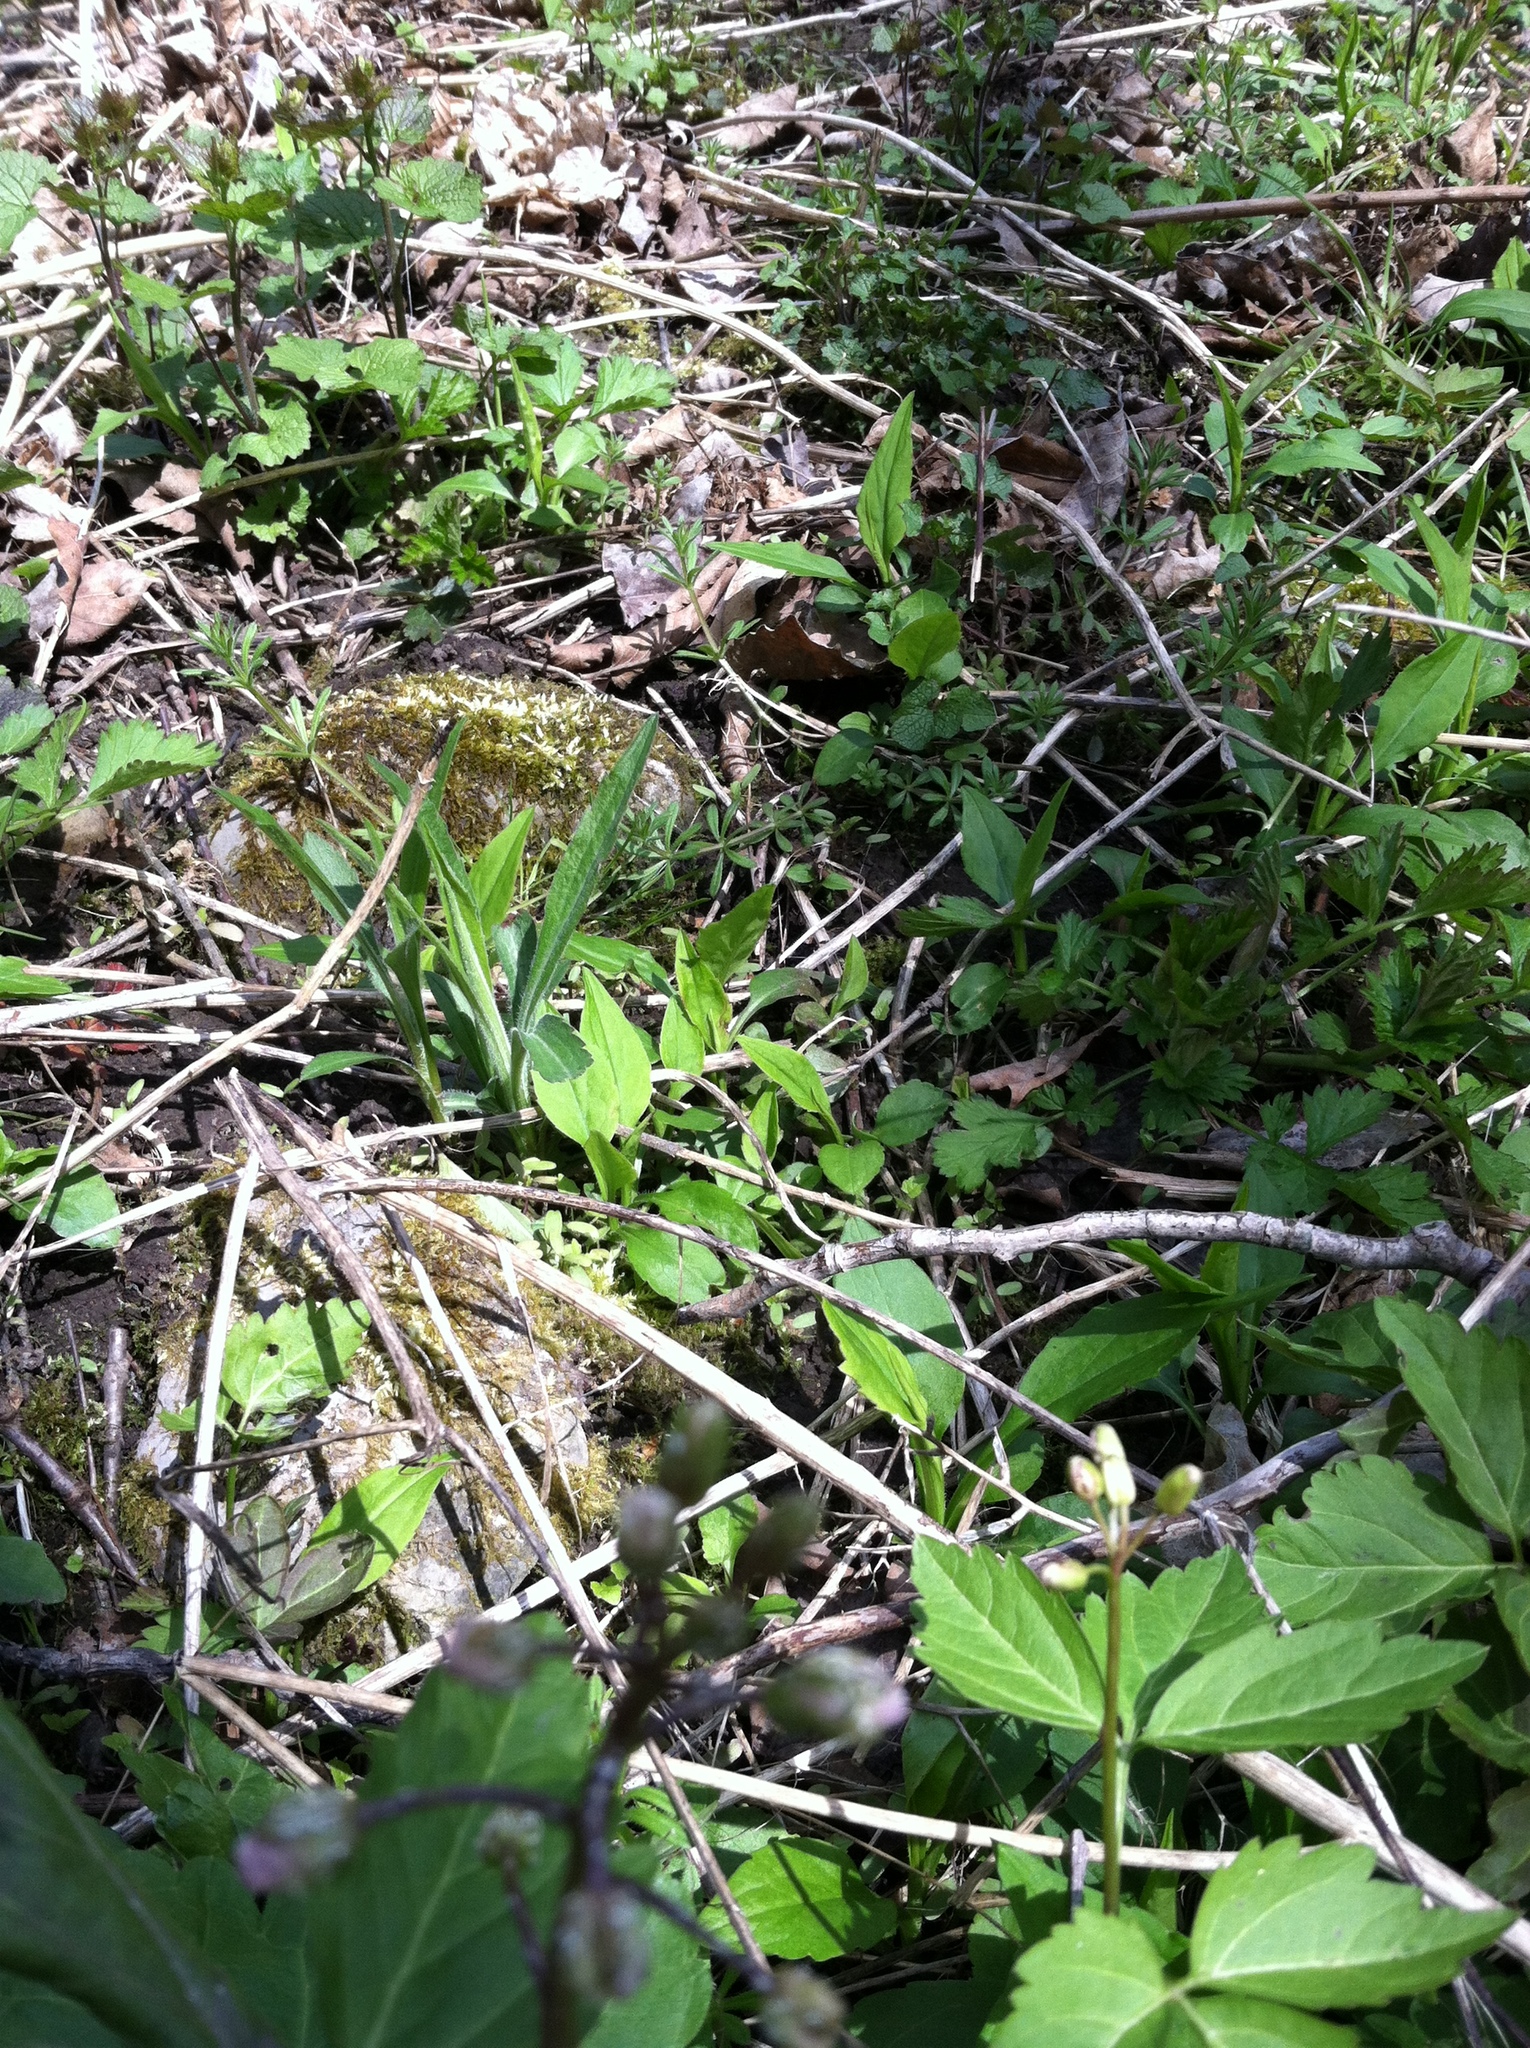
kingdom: Plantae
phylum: Tracheophyta
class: Magnoliopsida
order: Brassicales
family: Brassicaceae
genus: Cardamine
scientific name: Cardamine maxima
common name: Great bittercress
